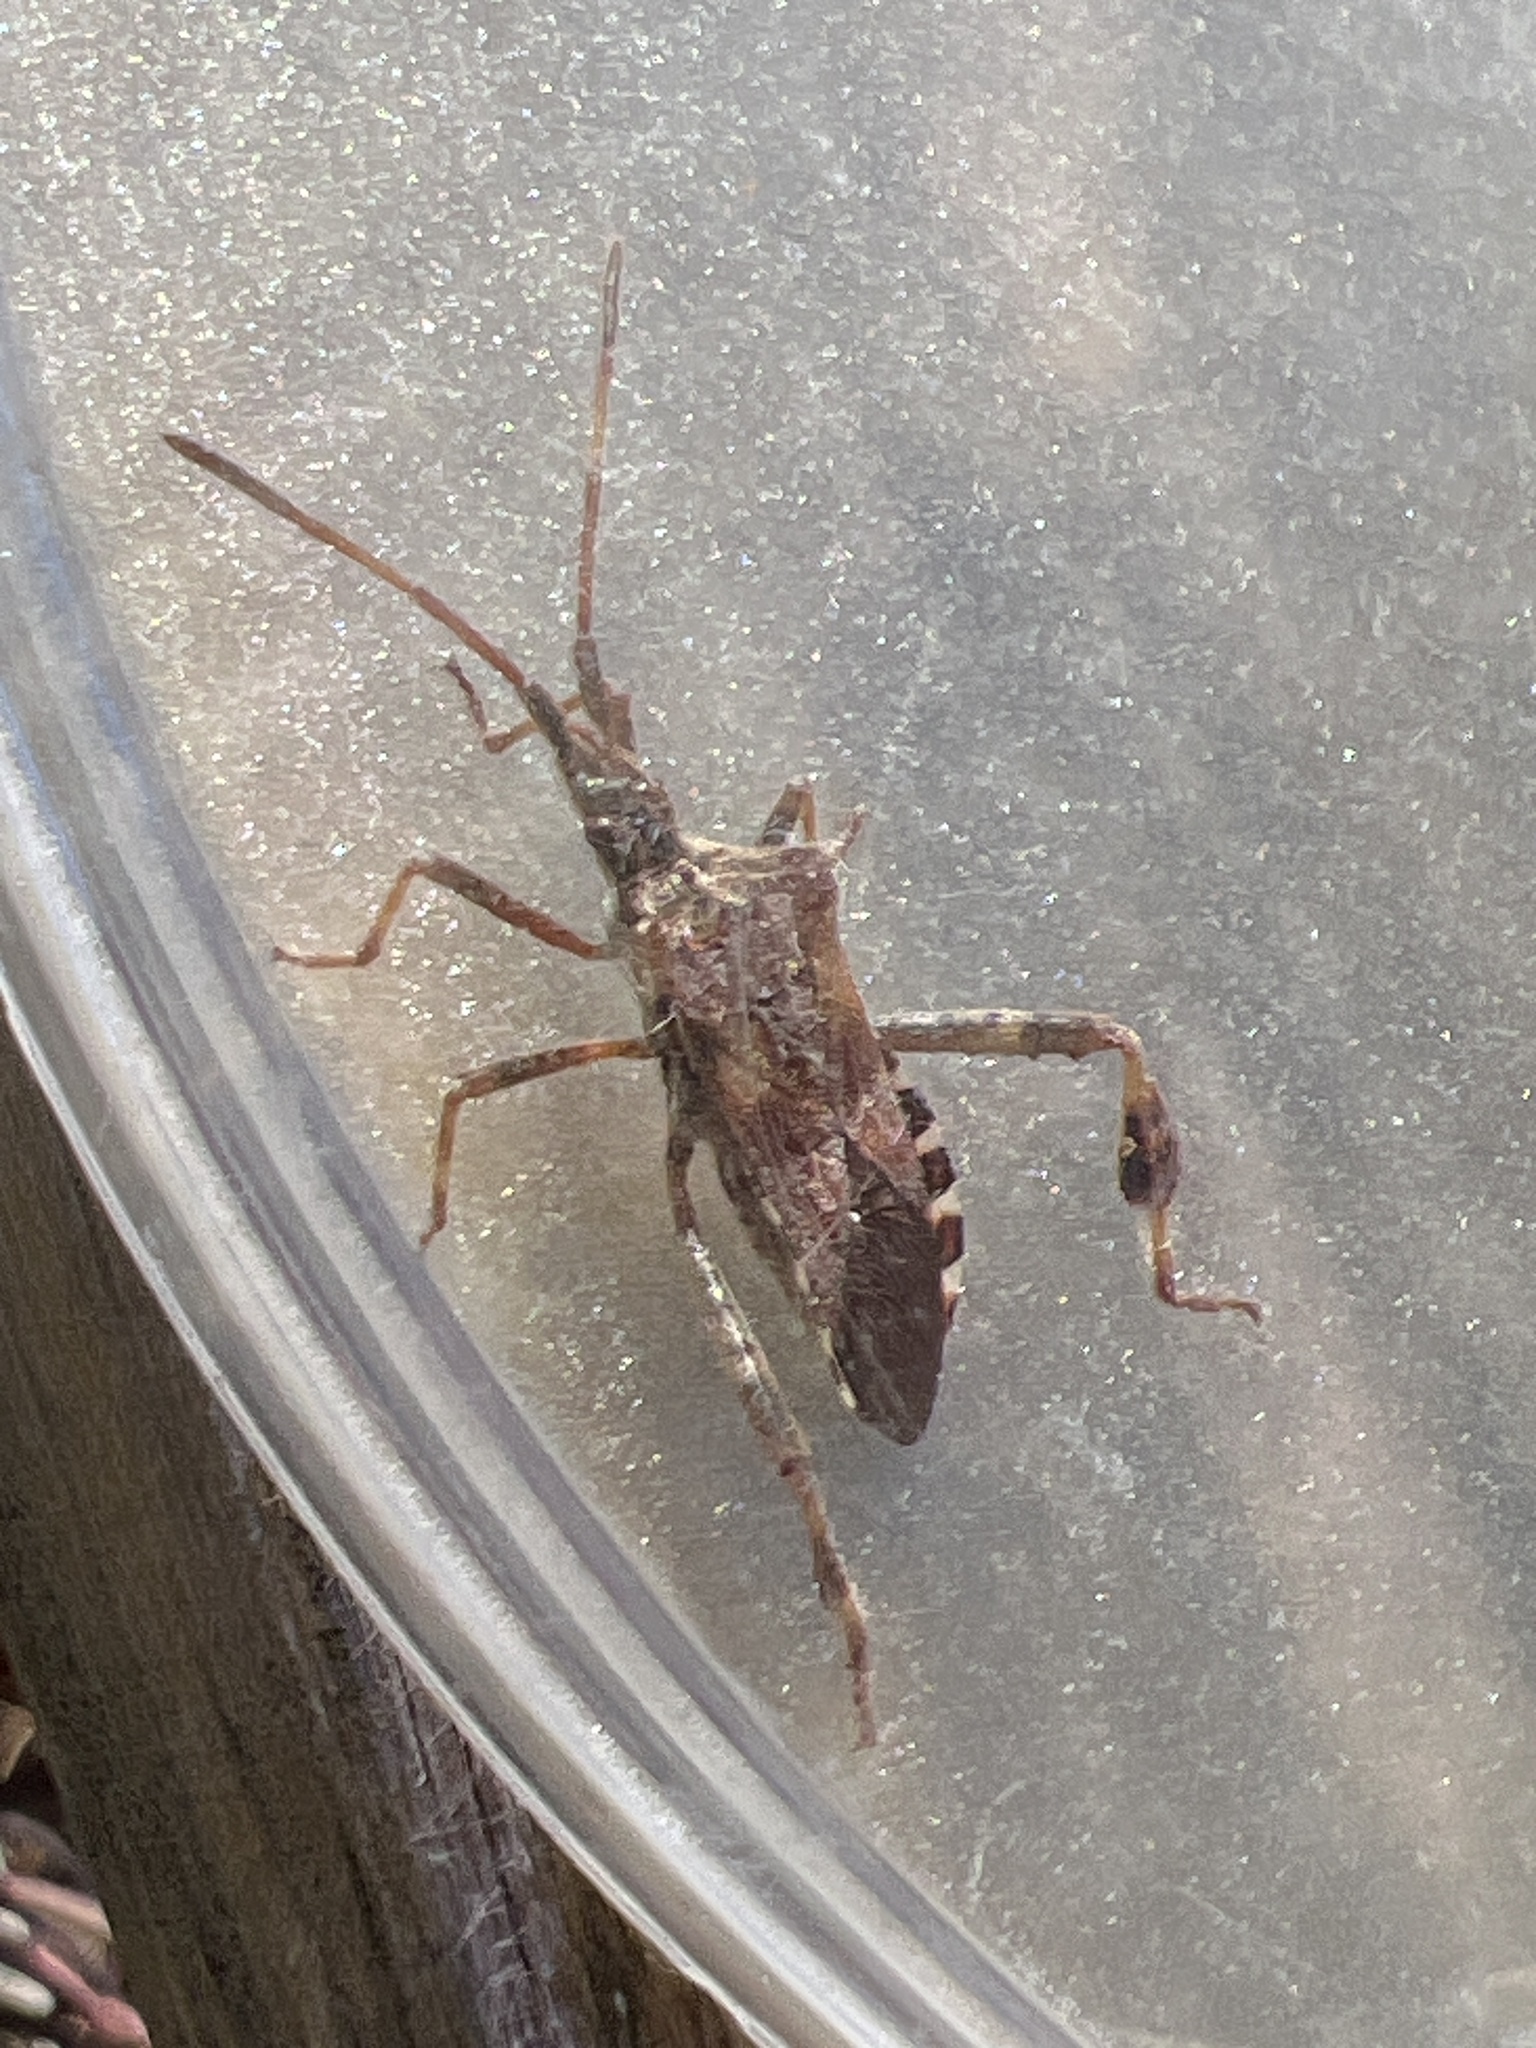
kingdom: Animalia
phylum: Arthropoda
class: Insecta
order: Hemiptera
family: Coreidae
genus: Leptoglossus
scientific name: Leptoglossus occidentalis
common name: Western conifer-seed bug
